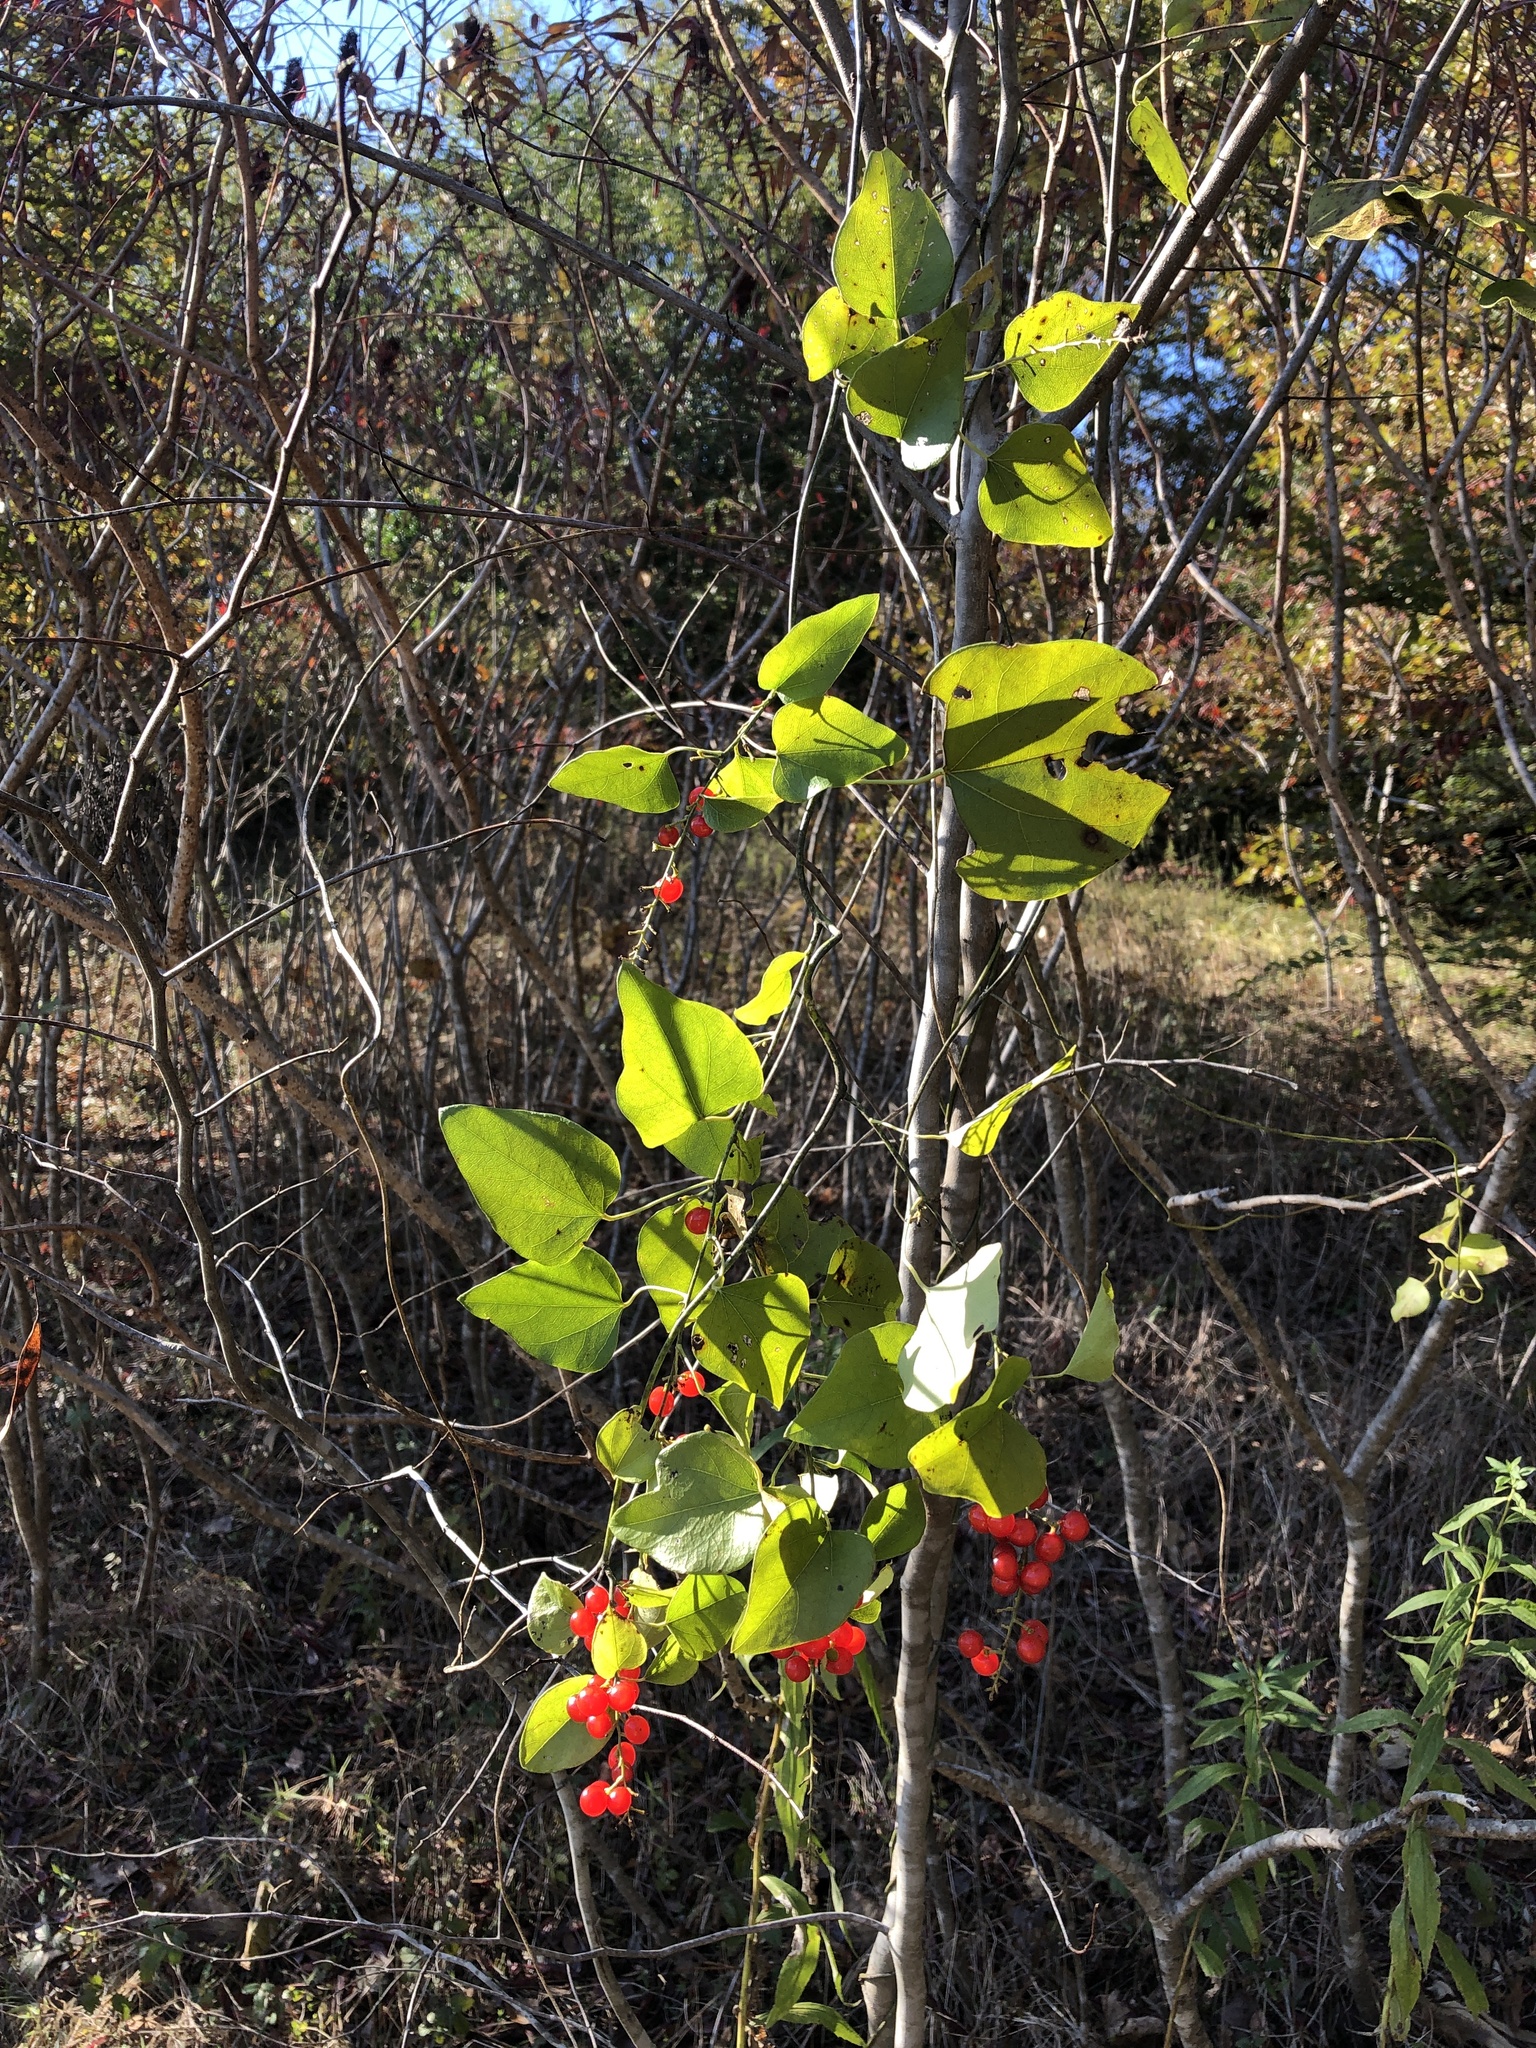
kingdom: Plantae
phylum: Tracheophyta
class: Magnoliopsida
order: Ranunculales
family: Menispermaceae
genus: Cocculus
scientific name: Cocculus carolinus
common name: Carolina moonseed
